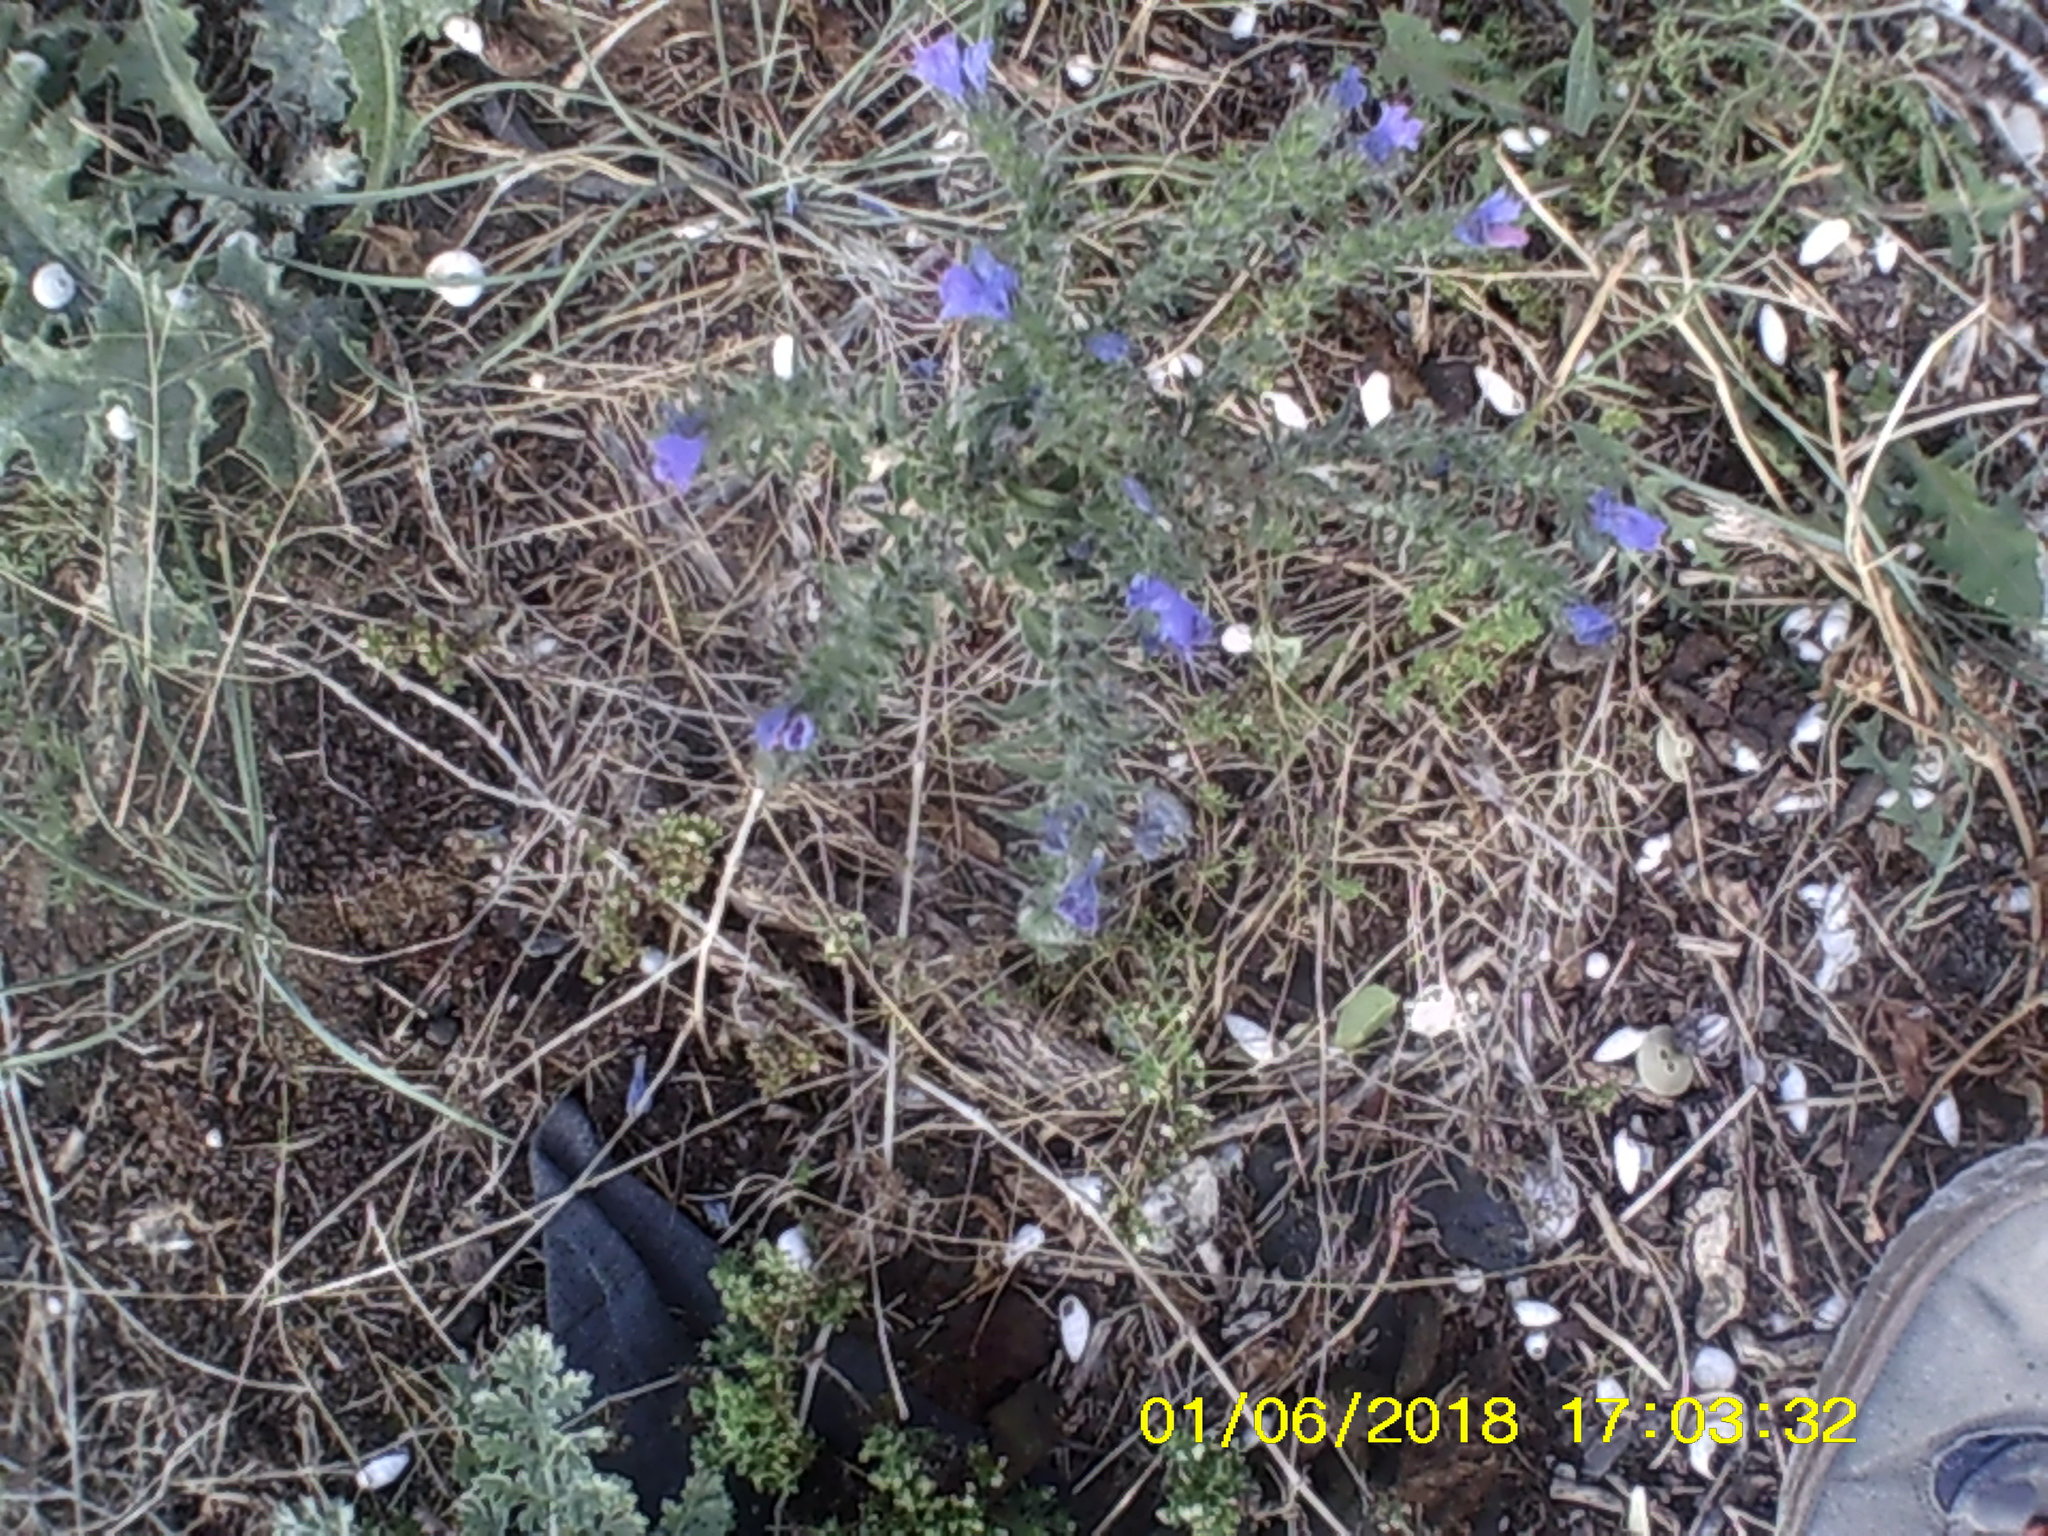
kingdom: Plantae
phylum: Tracheophyta
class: Magnoliopsida
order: Boraginales
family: Boraginaceae
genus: Echium
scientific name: Echium vulgare
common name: Common viper's bugloss
